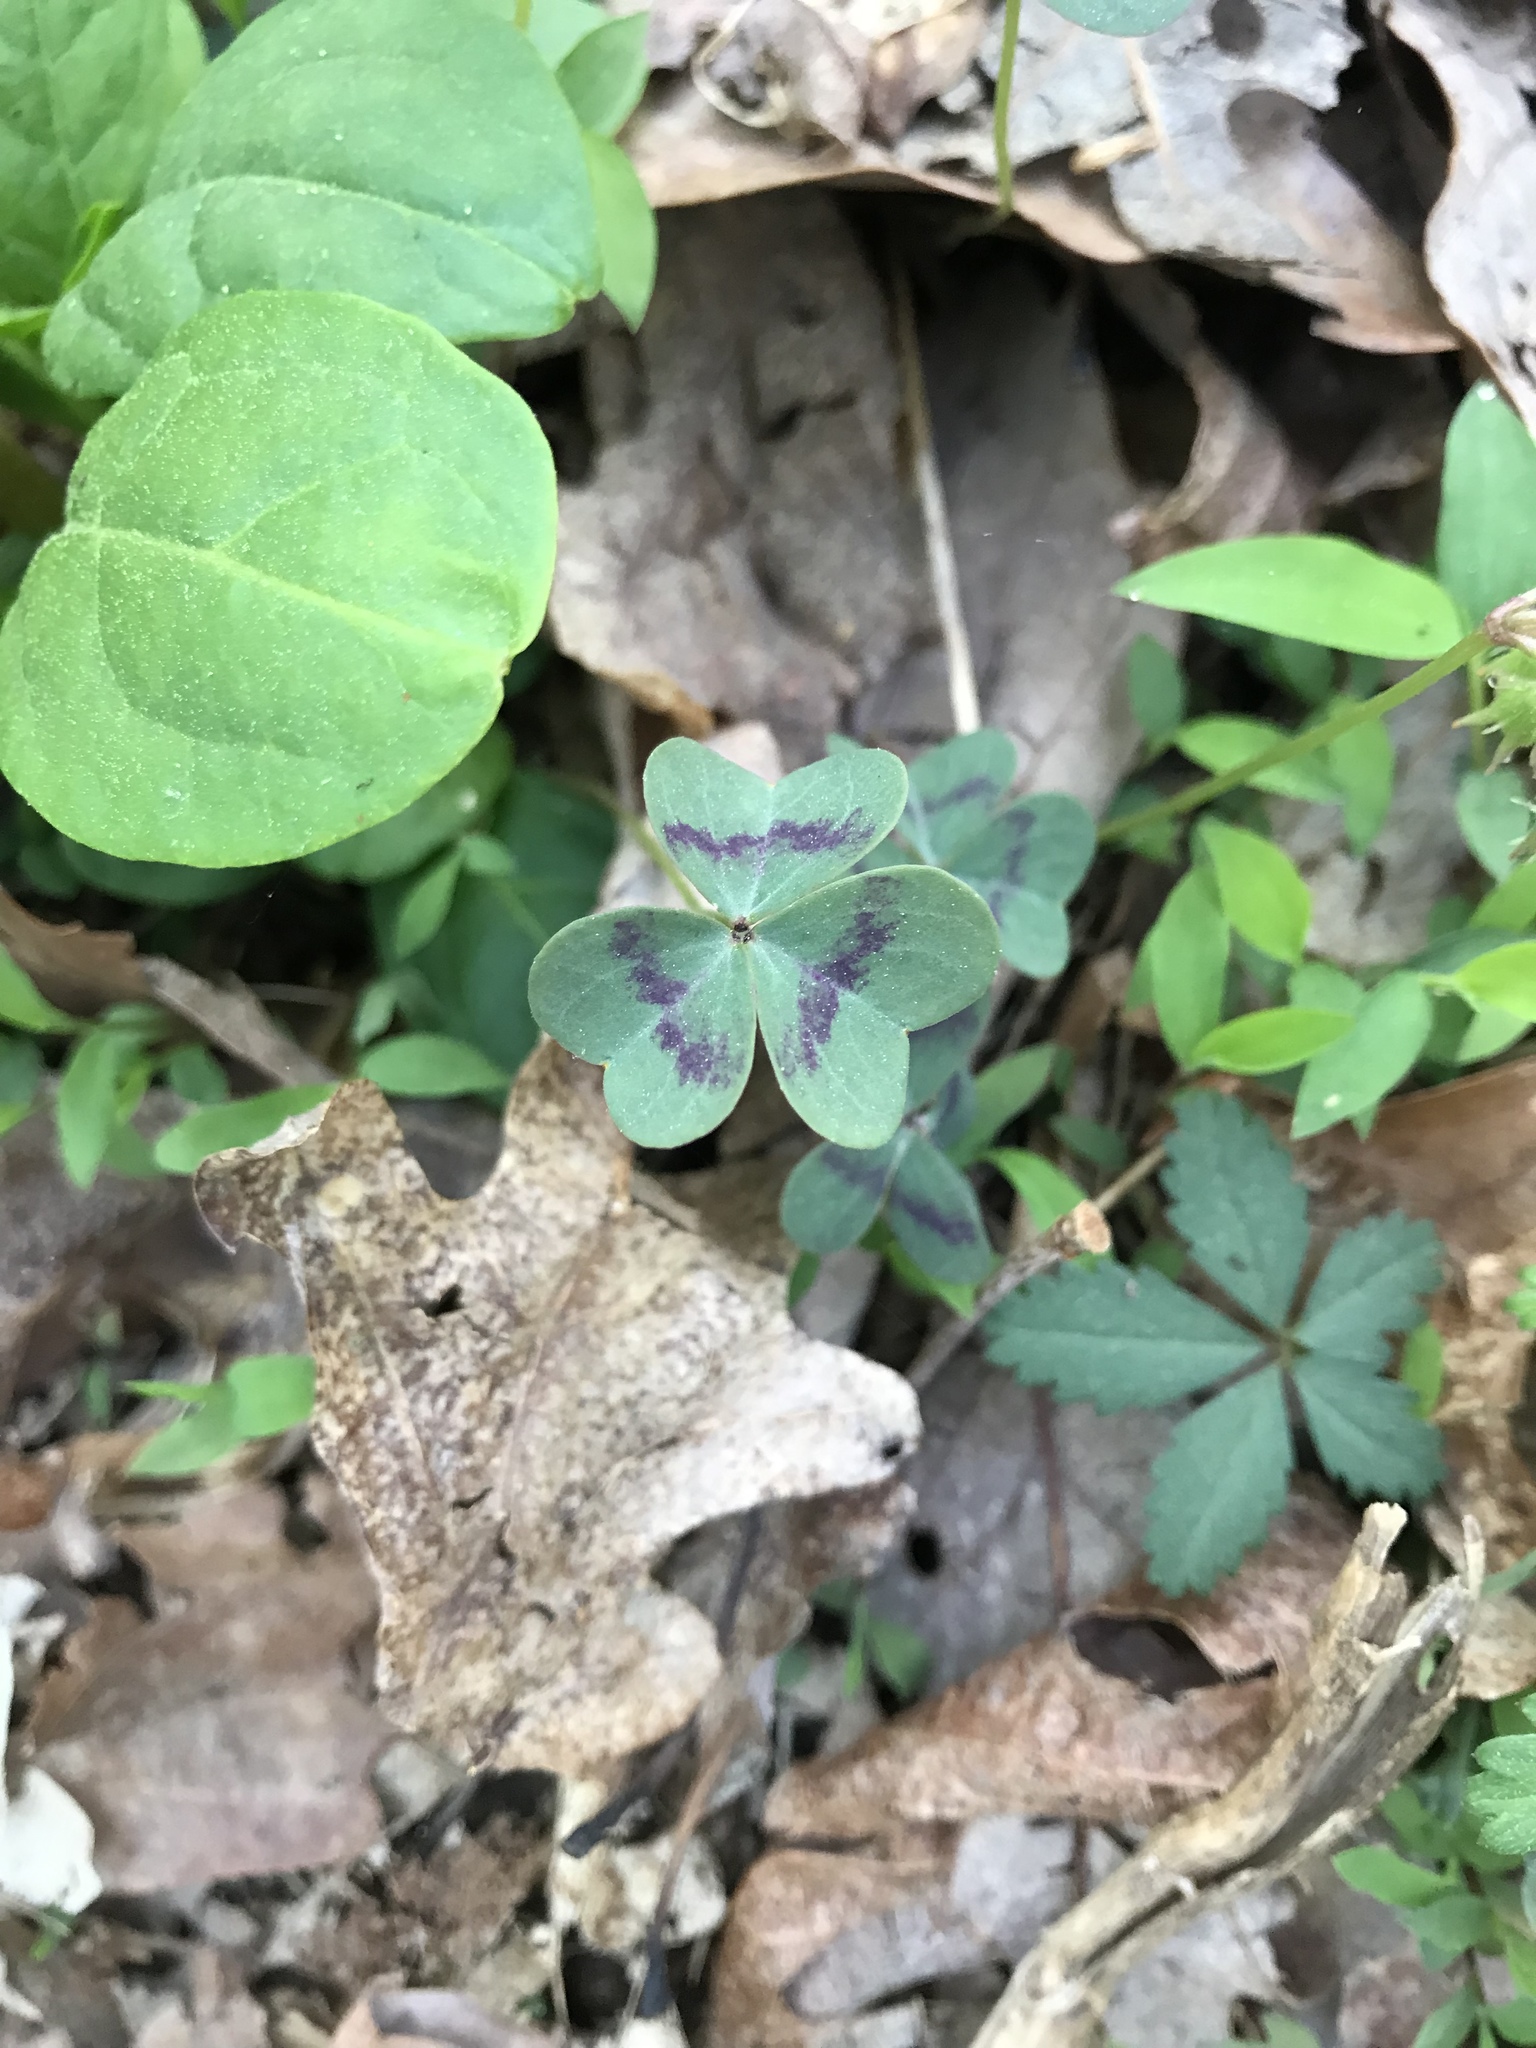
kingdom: Plantae
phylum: Tracheophyta
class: Magnoliopsida
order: Oxalidales
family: Oxalidaceae
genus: Oxalis
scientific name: Oxalis violacea
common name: Violet wood-sorrel
